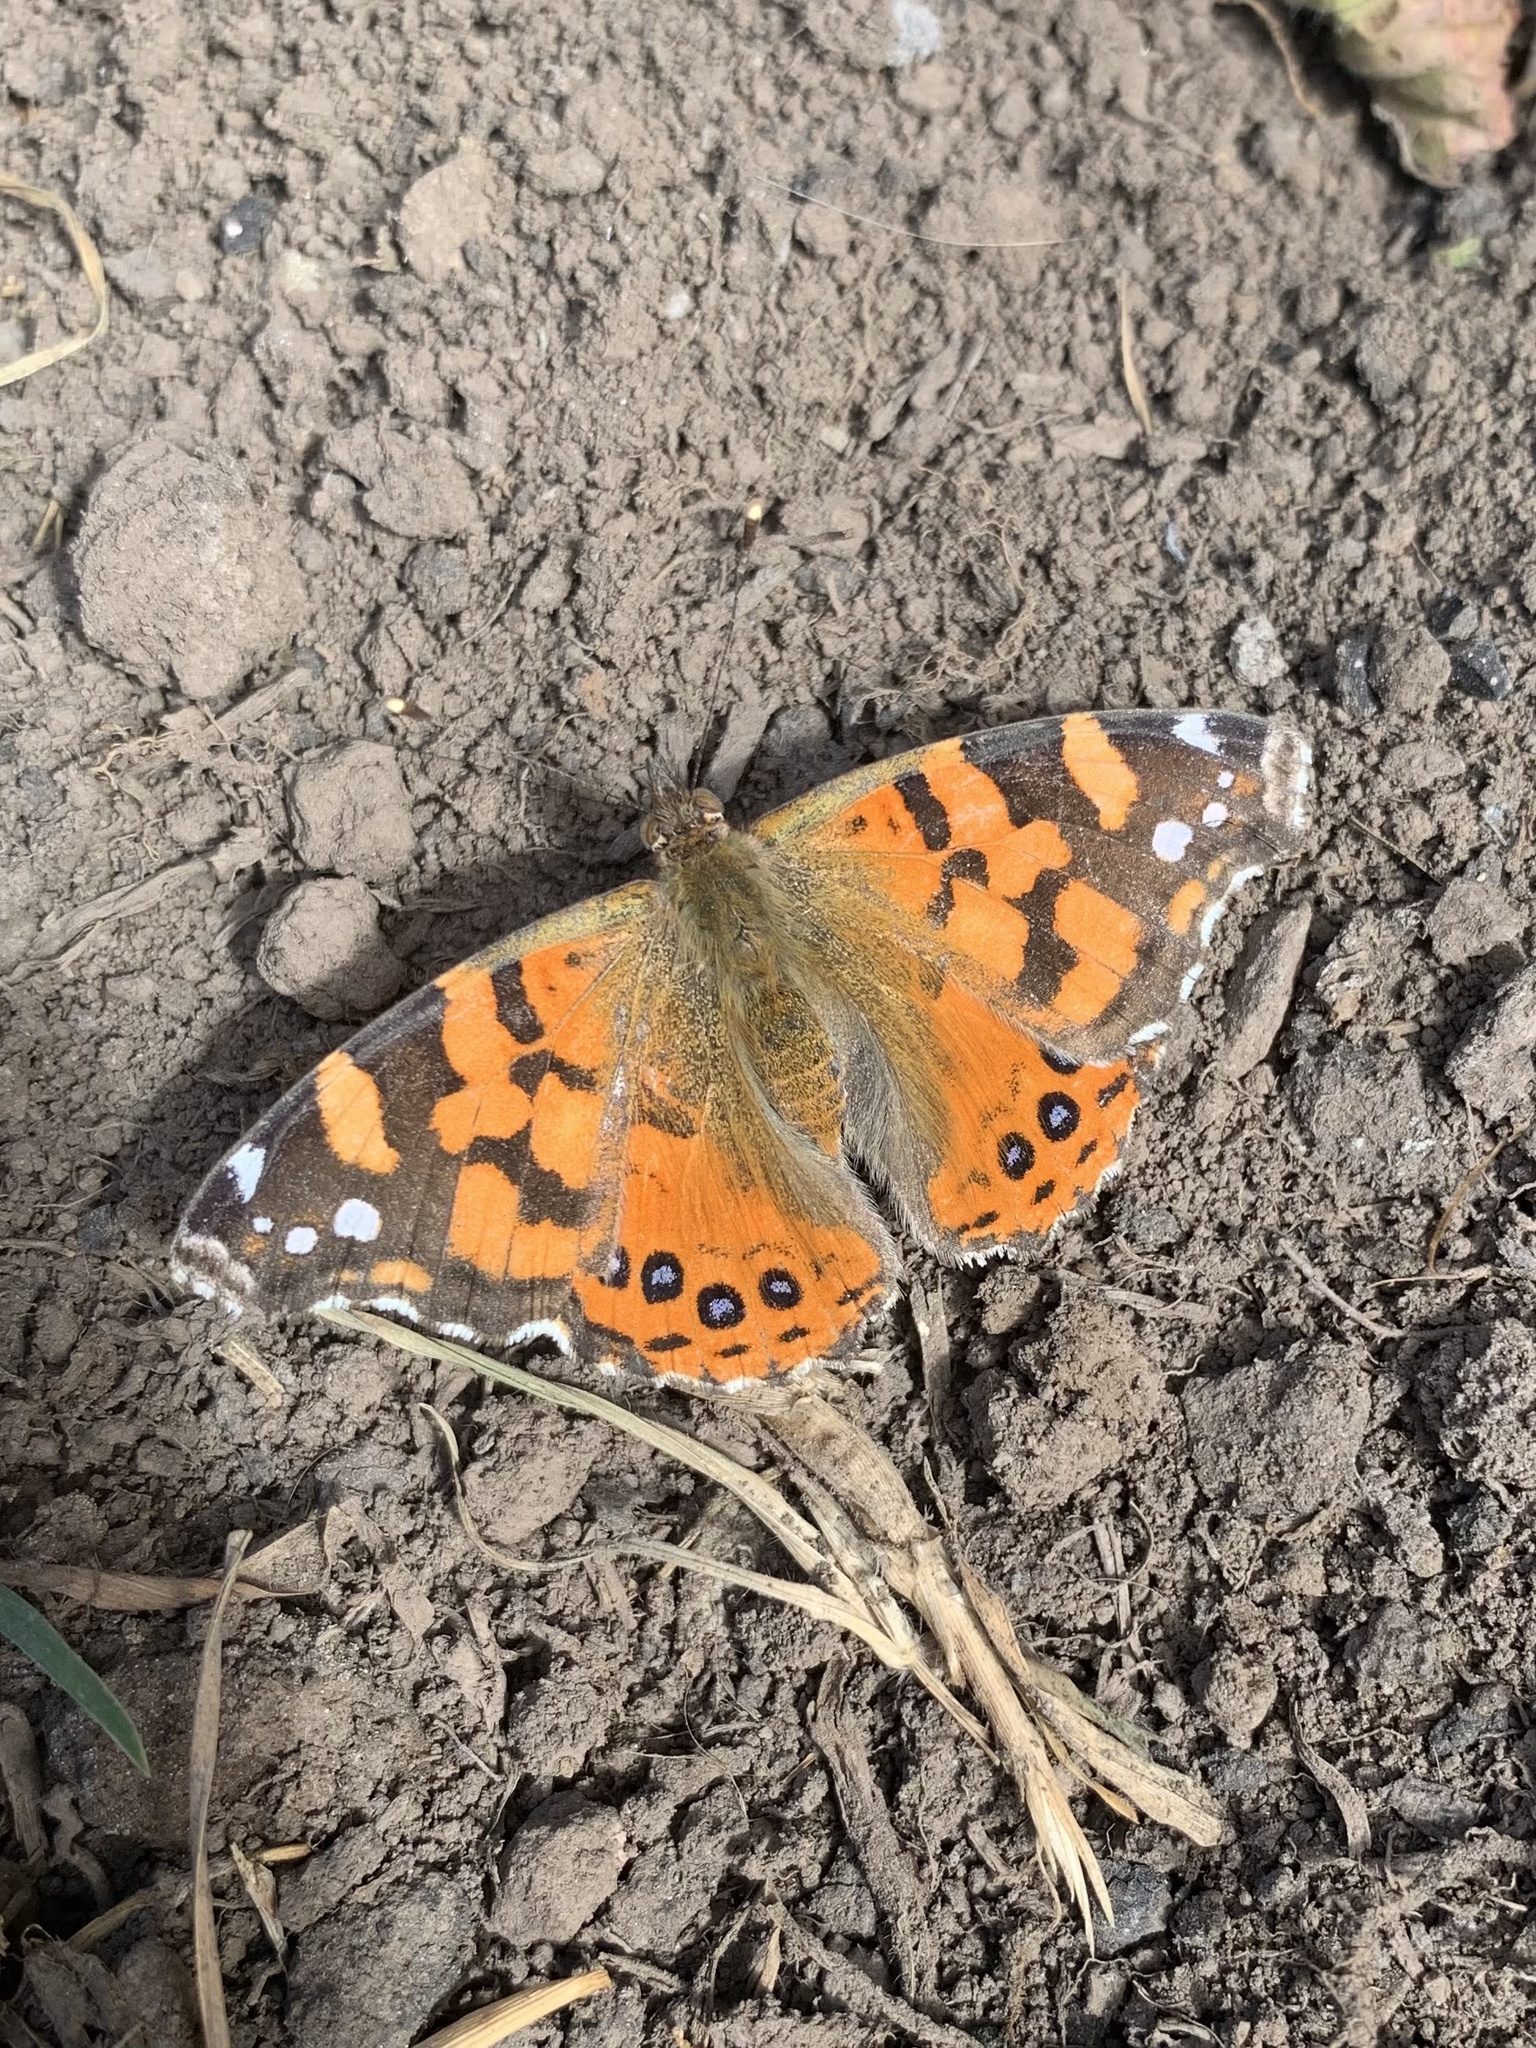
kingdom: Animalia
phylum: Arthropoda
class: Insecta
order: Lepidoptera
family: Nymphalidae
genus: Vanessa
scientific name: Vanessa carye
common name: Subtropical lady
